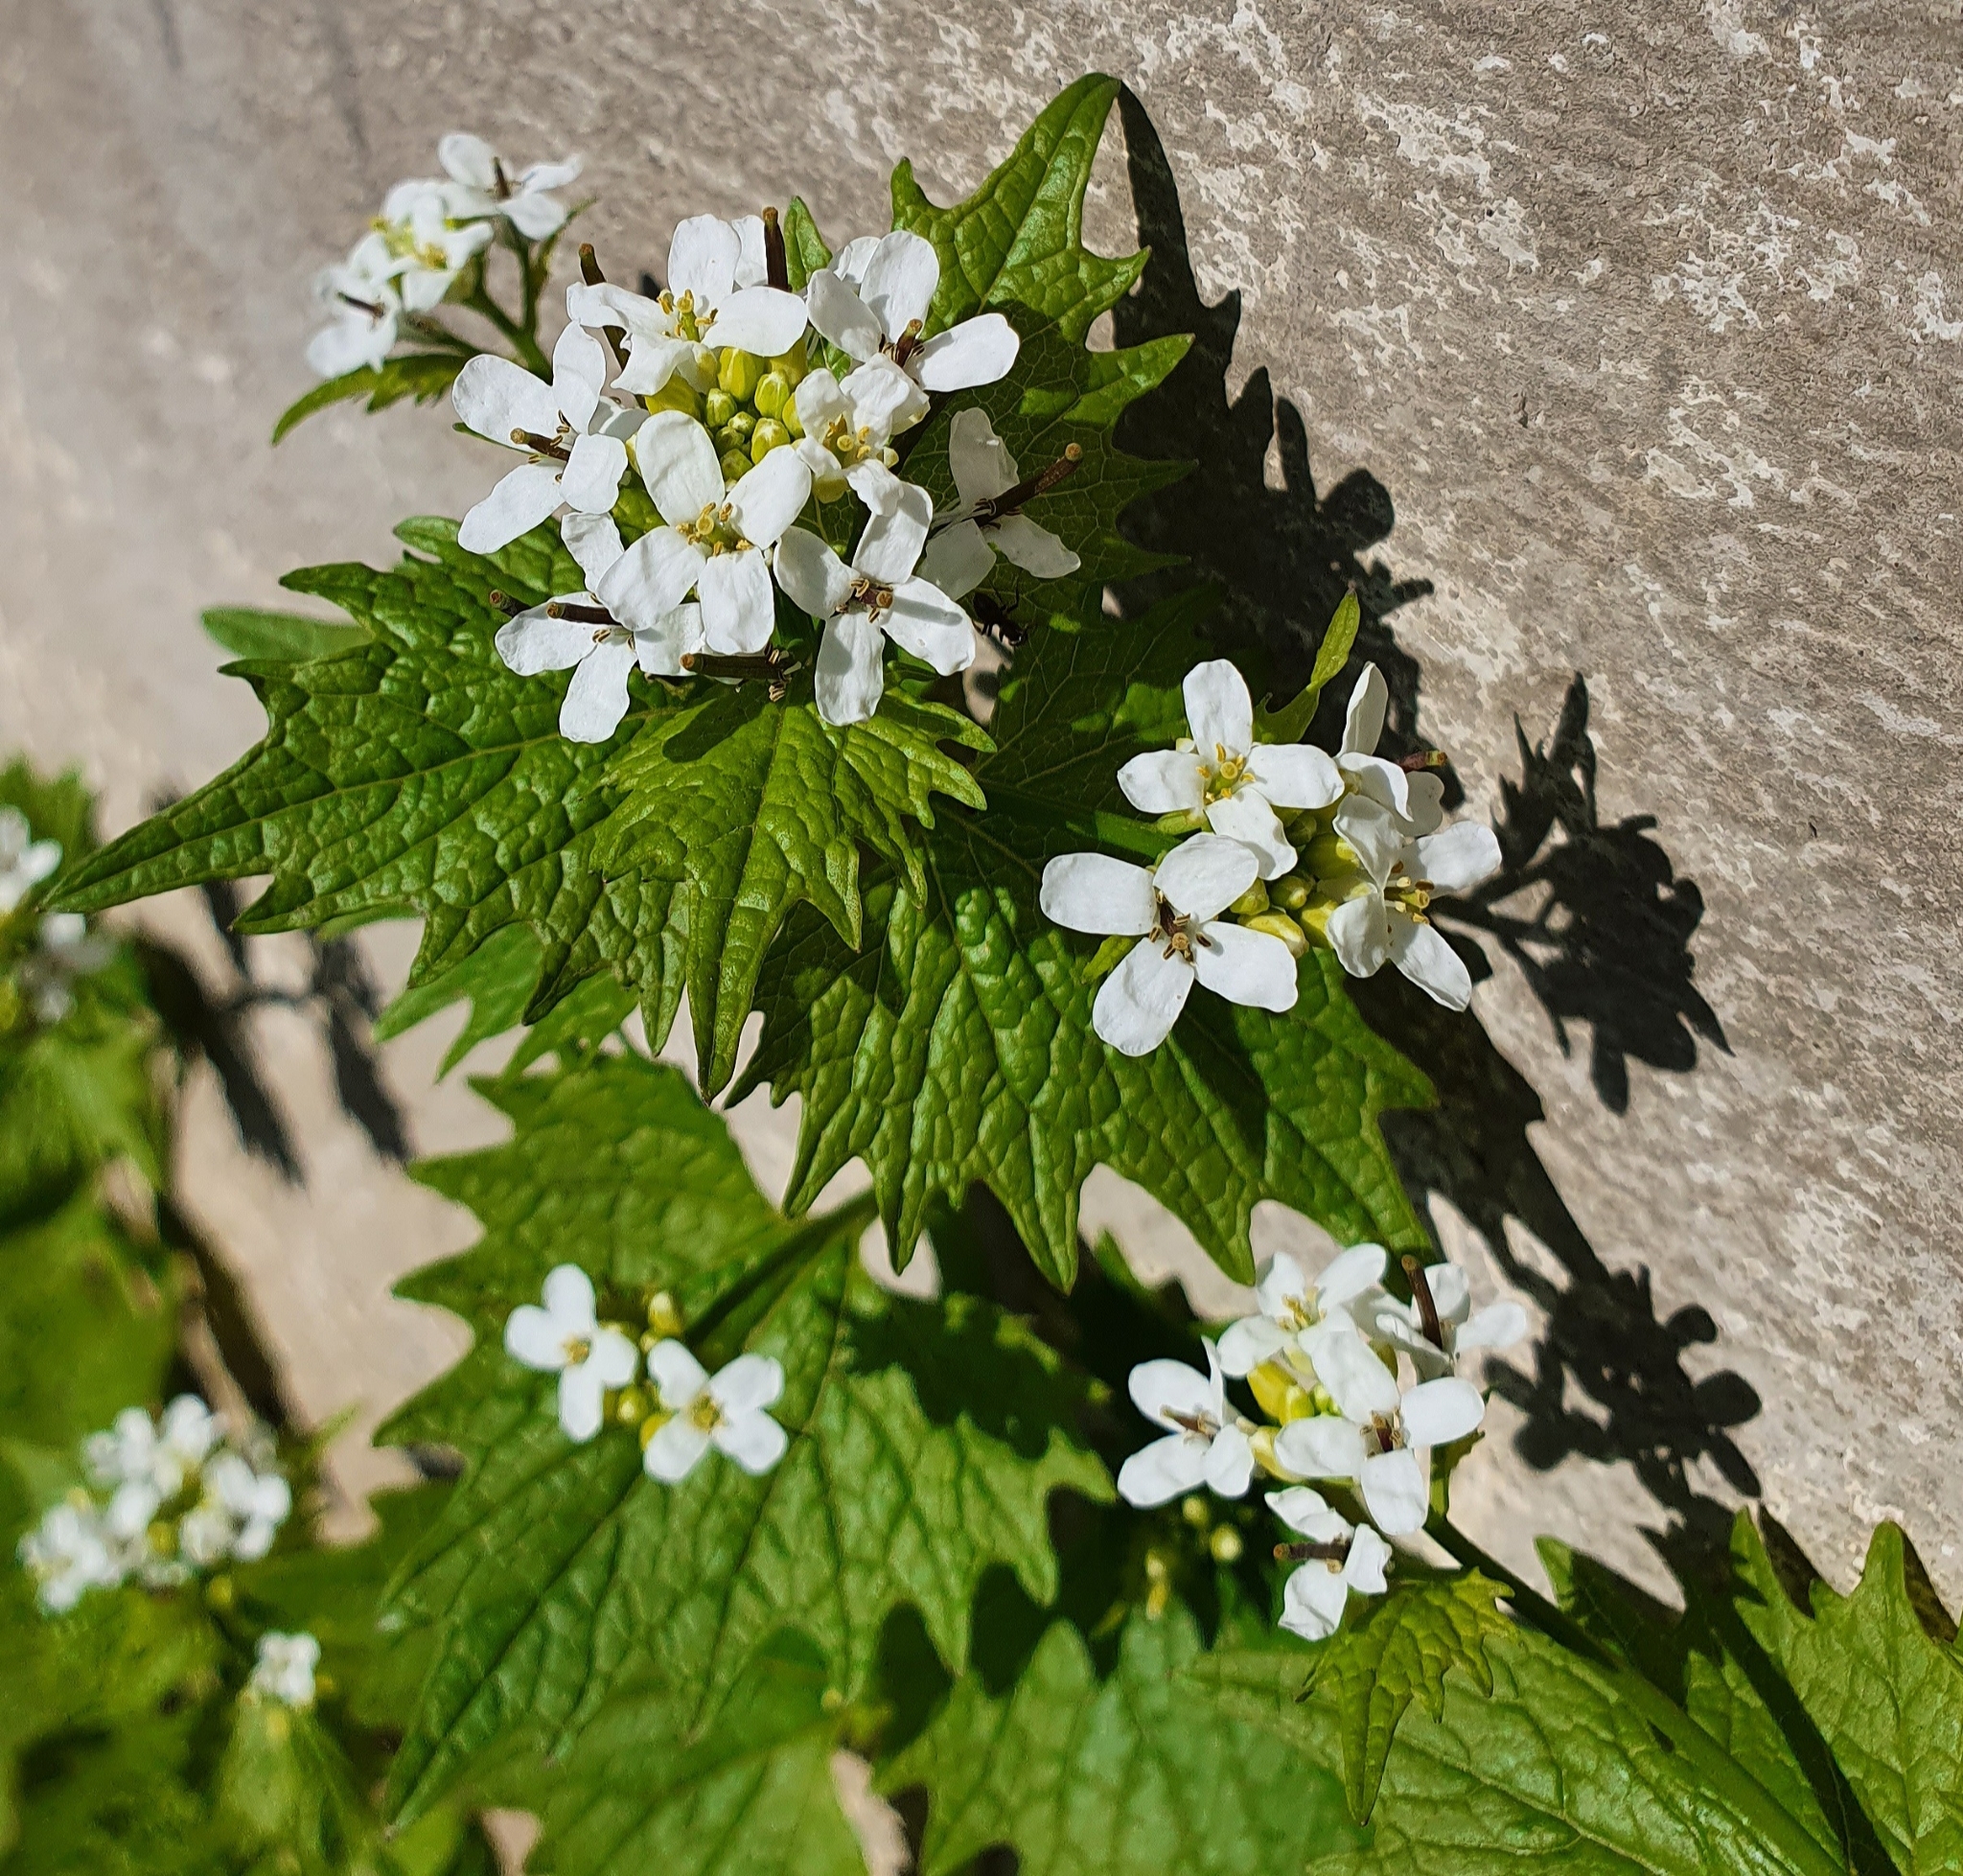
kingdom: Plantae
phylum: Tracheophyta
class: Magnoliopsida
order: Brassicales
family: Brassicaceae
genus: Alliaria
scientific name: Alliaria petiolata
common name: Garlic mustard
